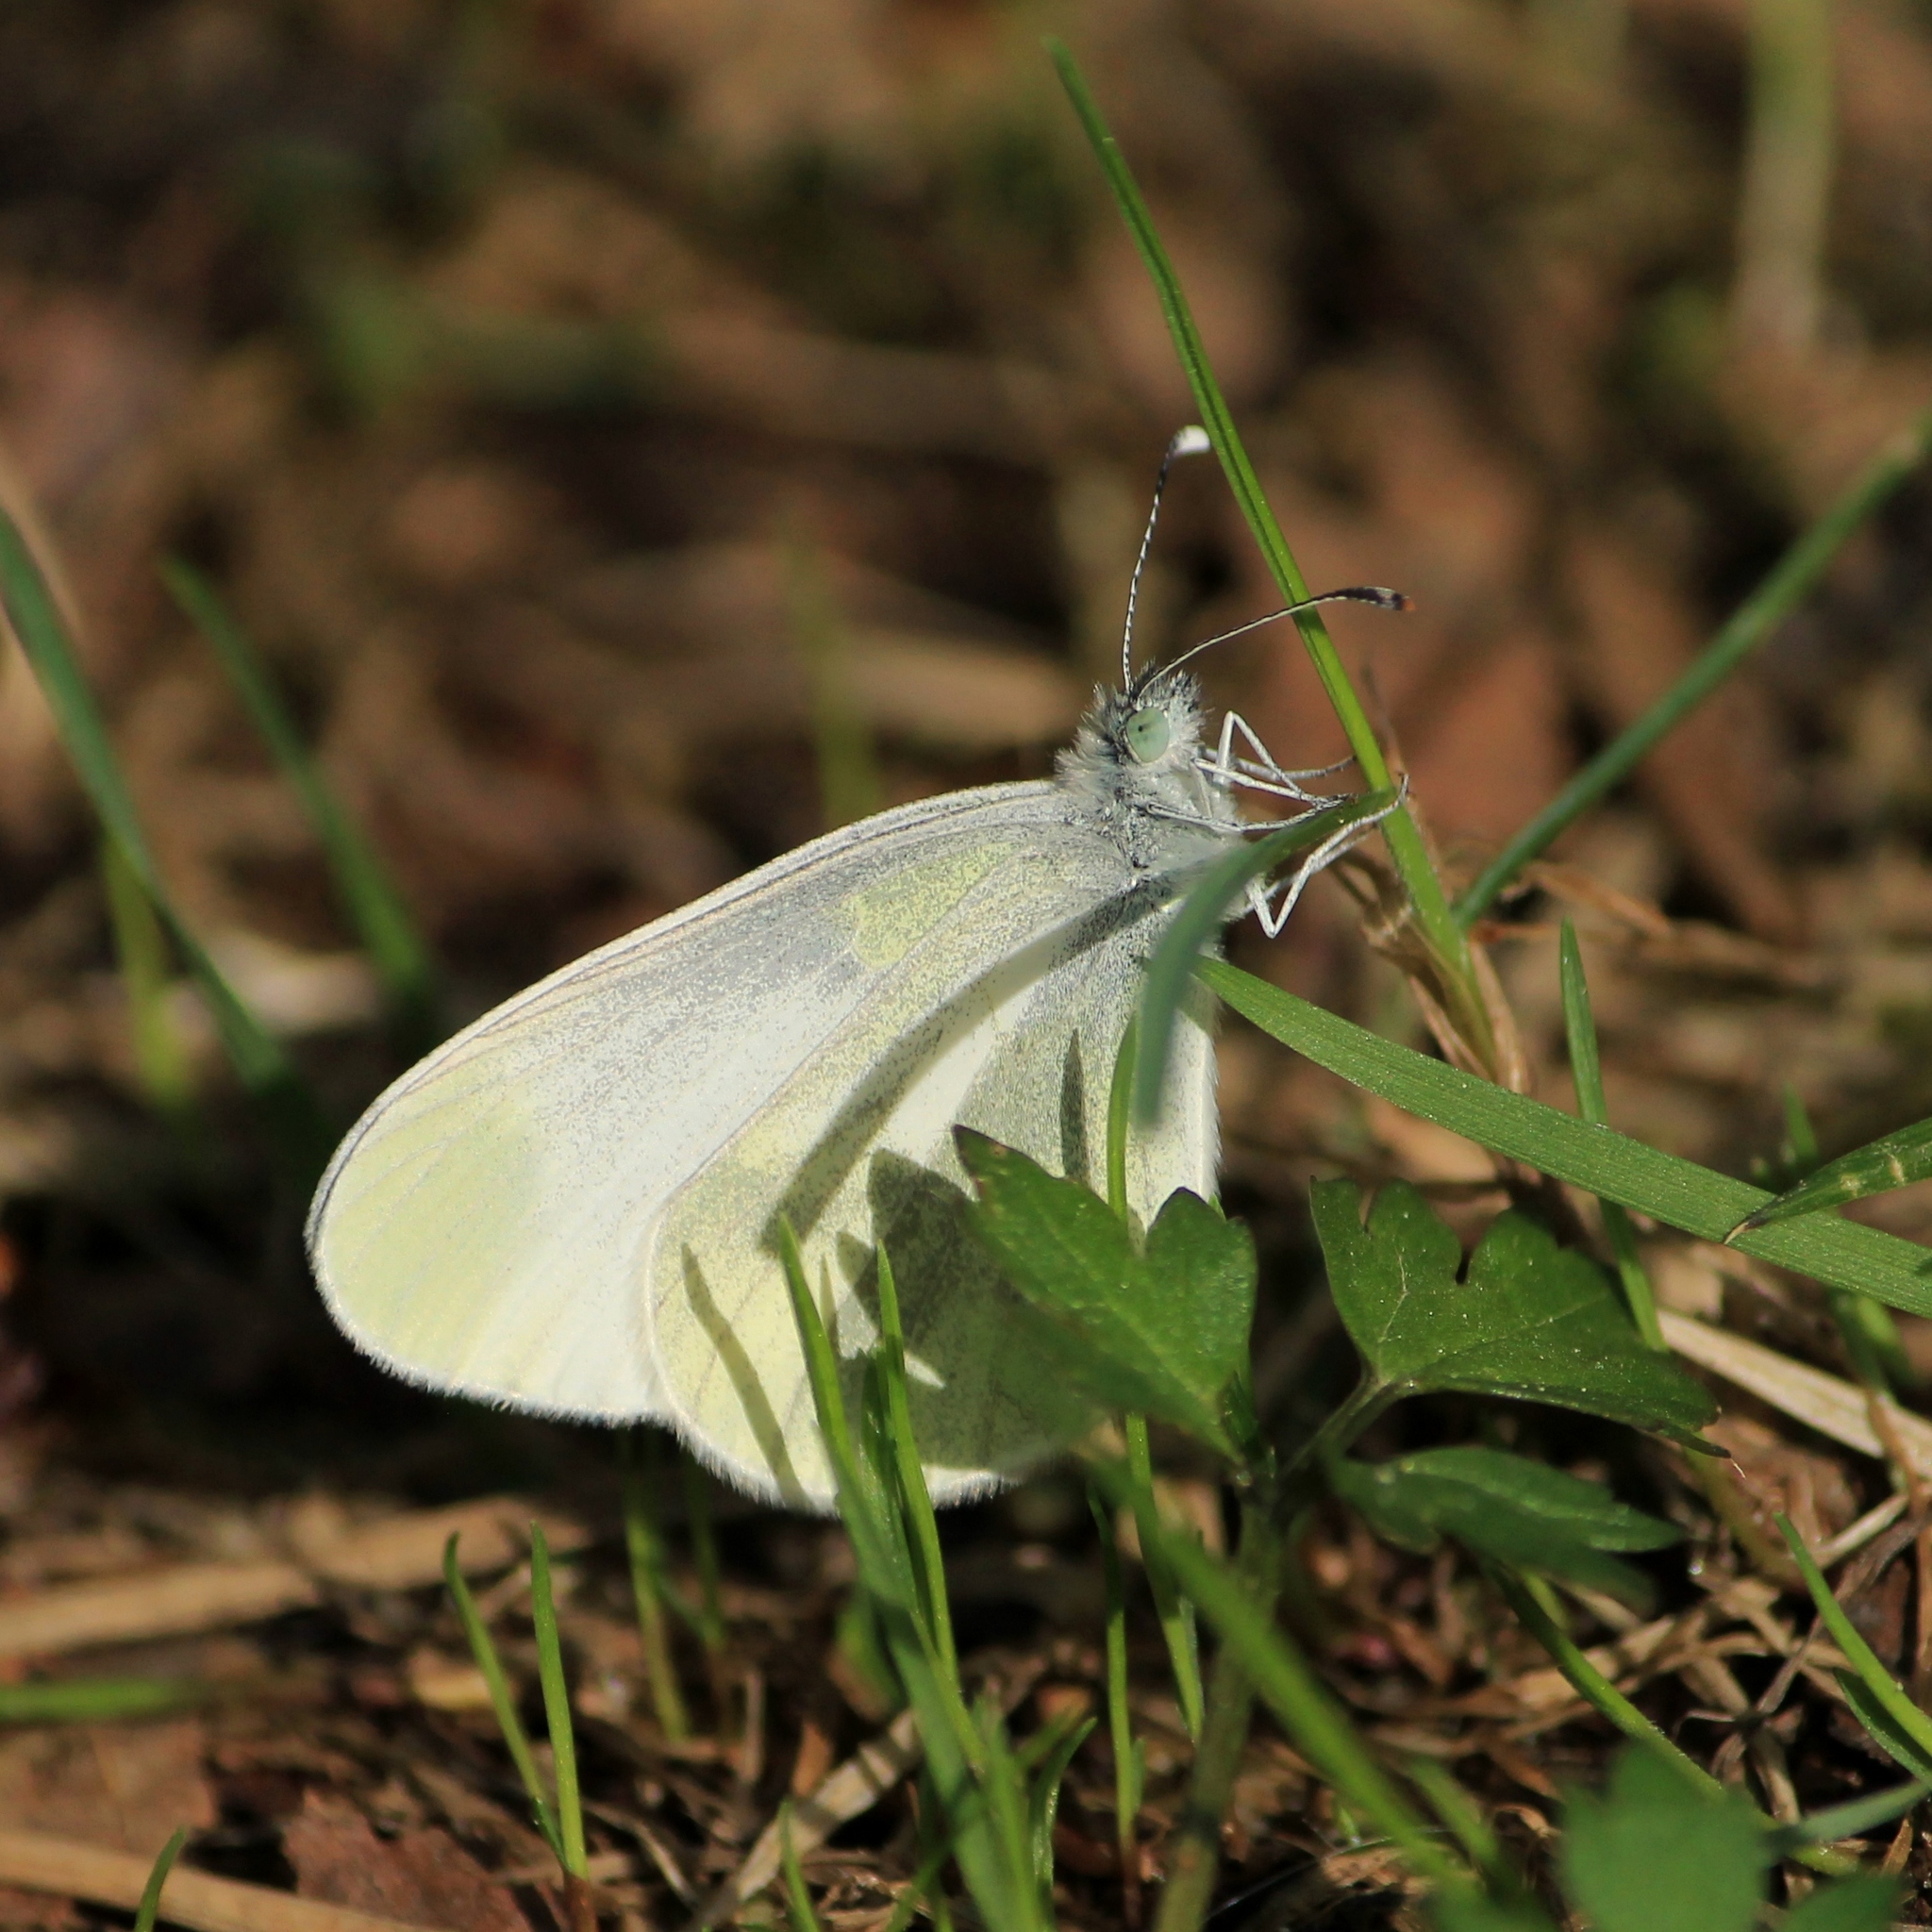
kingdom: Animalia
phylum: Arthropoda
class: Insecta
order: Lepidoptera
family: Pieridae
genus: Leptidea
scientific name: Leptidea
